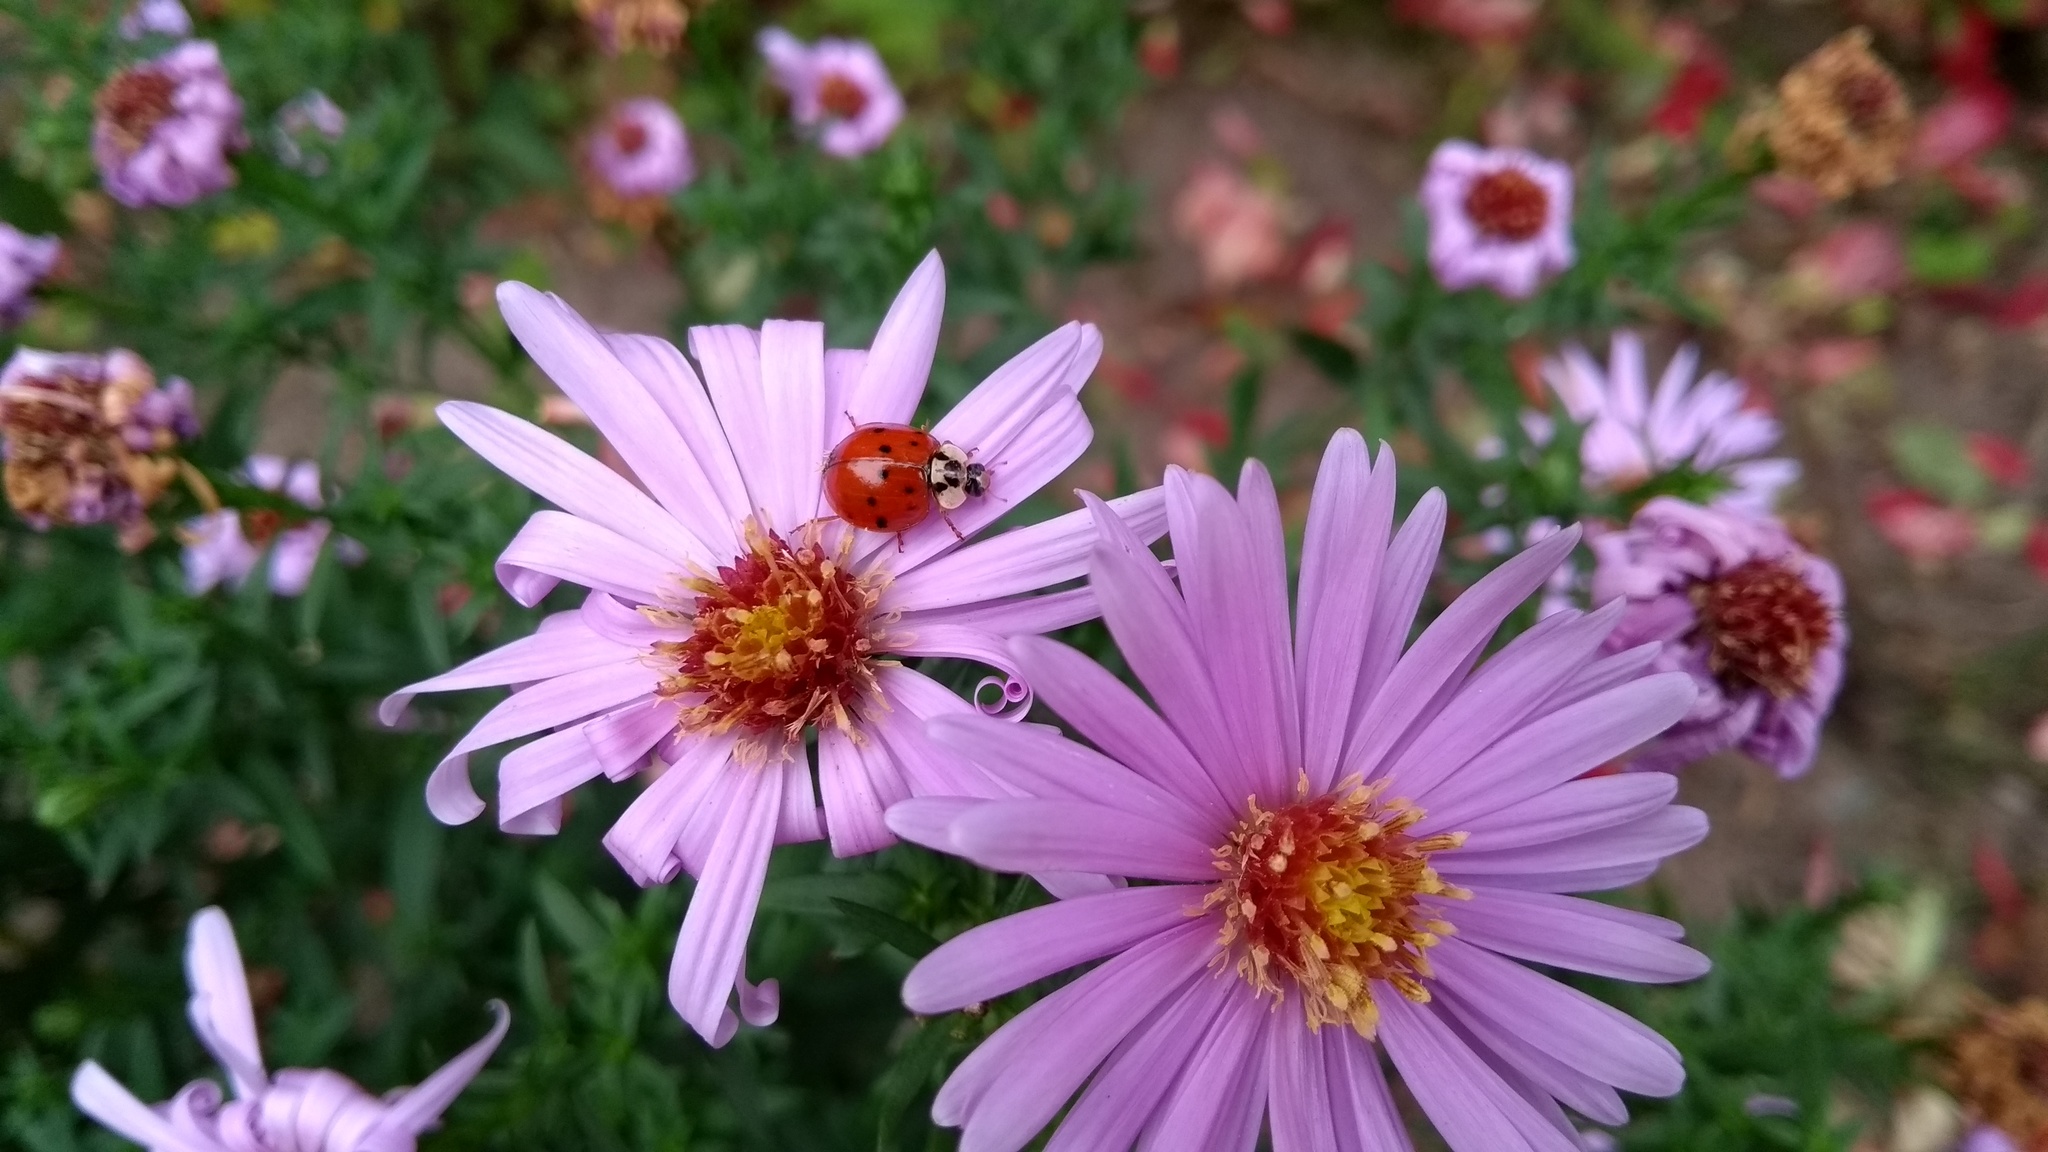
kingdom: Animalia
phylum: Arthropoda
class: Insecta
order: Coleoptera
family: Coccinellidae
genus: Harmonia
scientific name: Harmonia axyridis
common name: Harlequin ladybird
